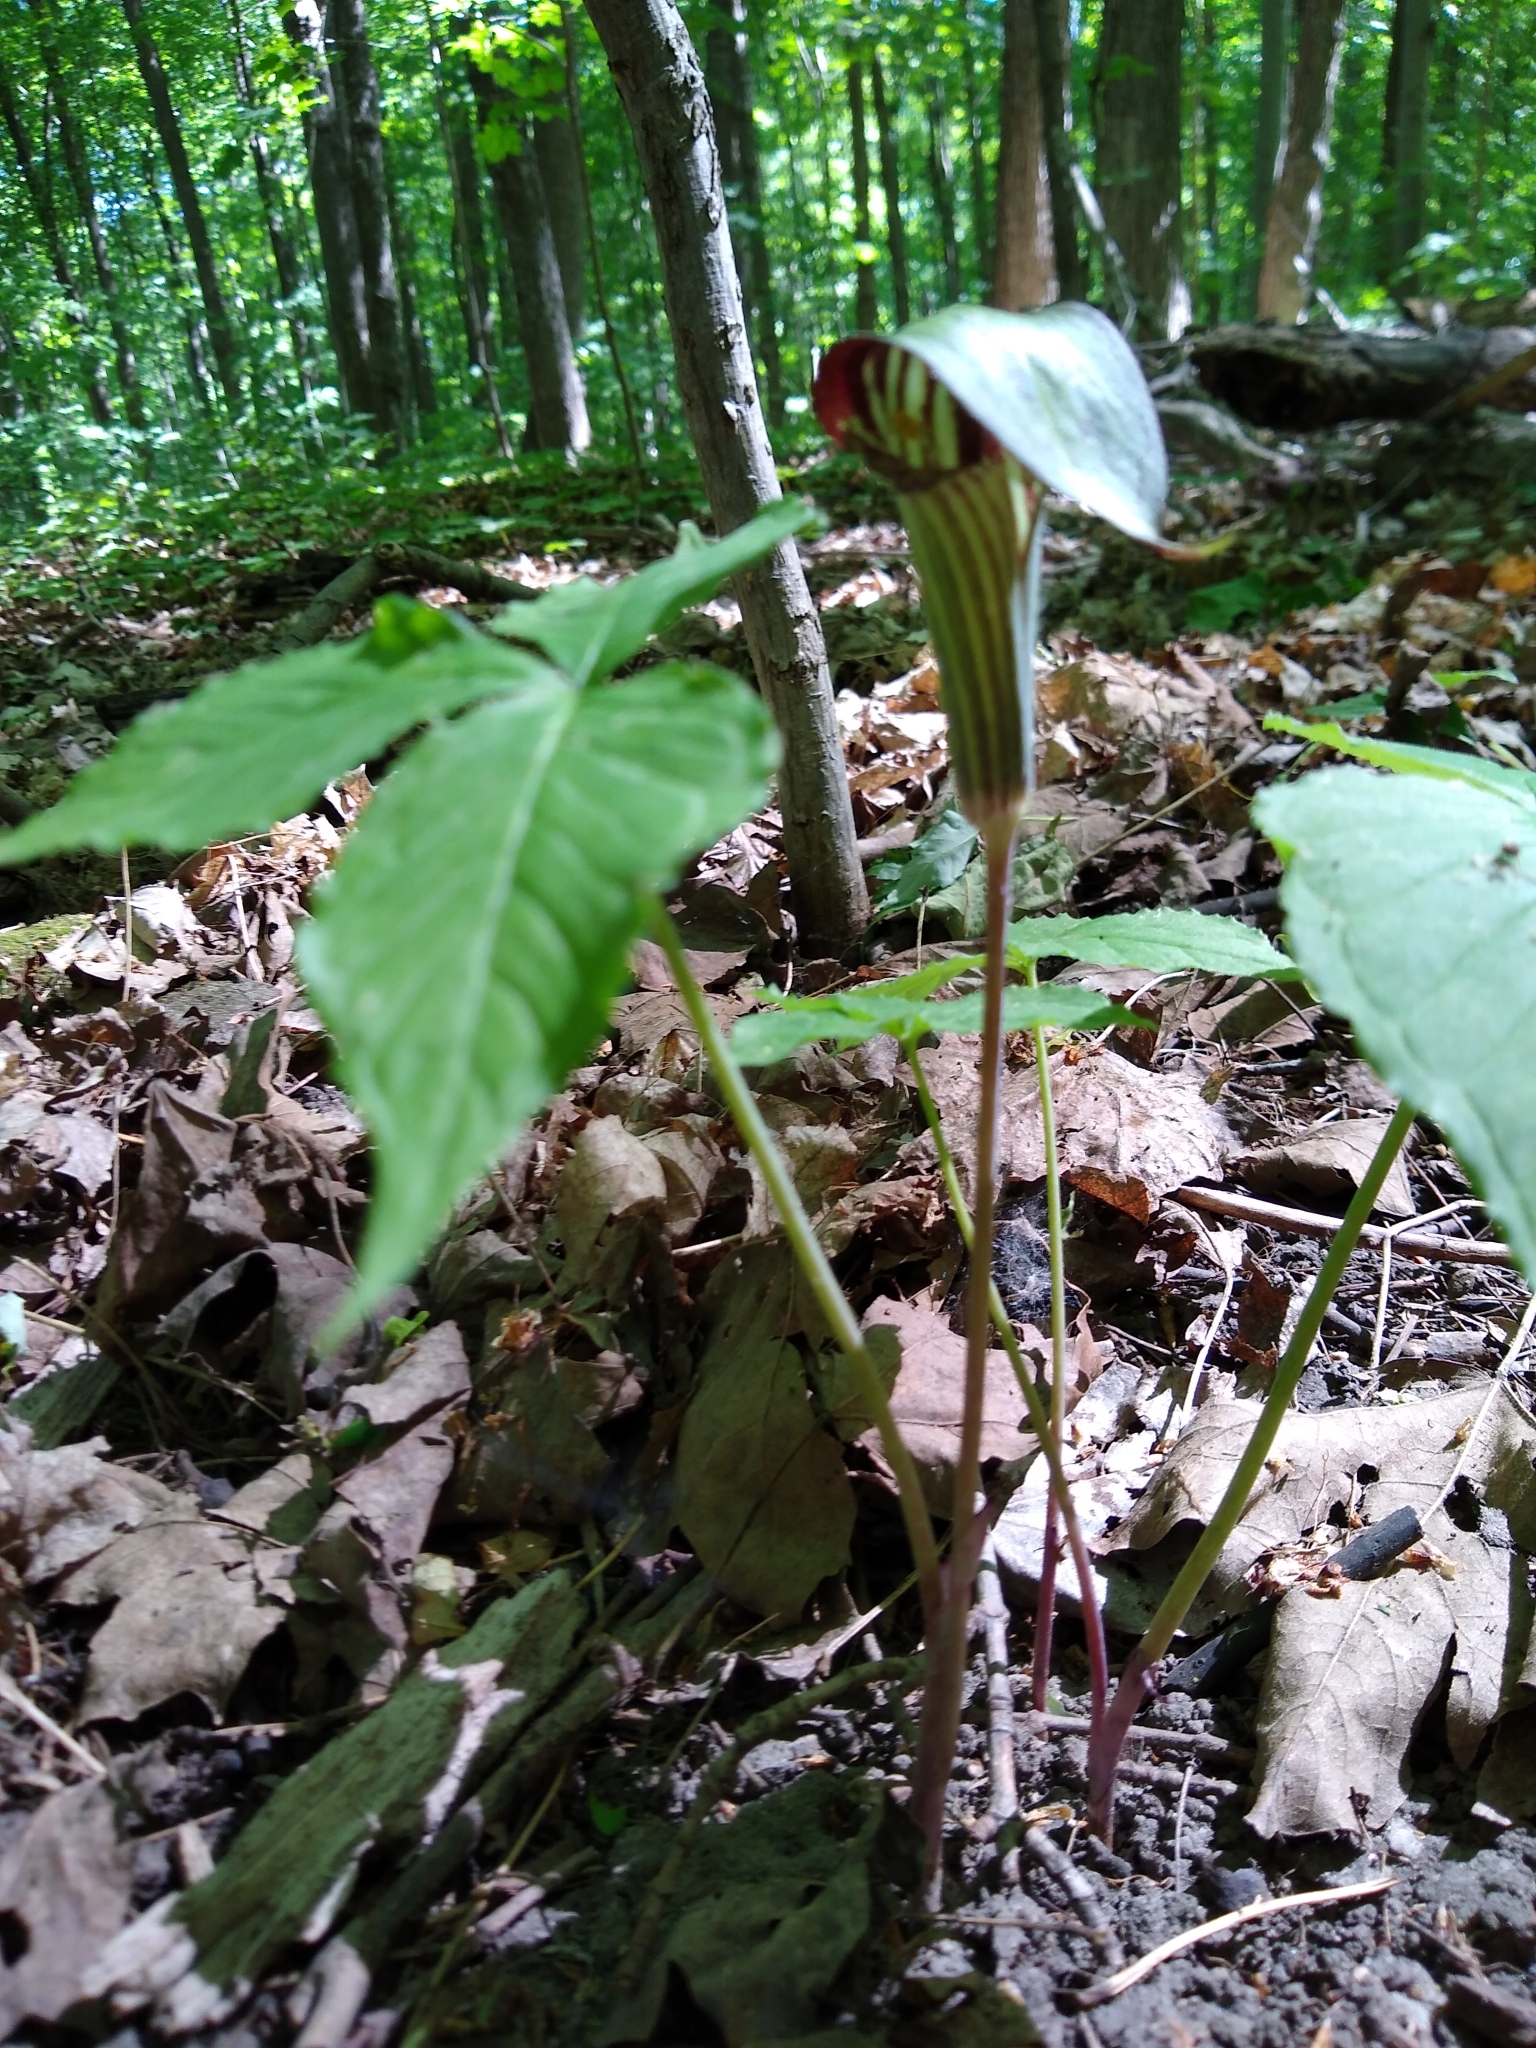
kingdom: Plantae
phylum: Tracheophyta
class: Liliopsida
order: Alismatales
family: Araceae
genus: Arisaema
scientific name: Arisaema triphyllum
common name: Jack-in-the-pulpit
